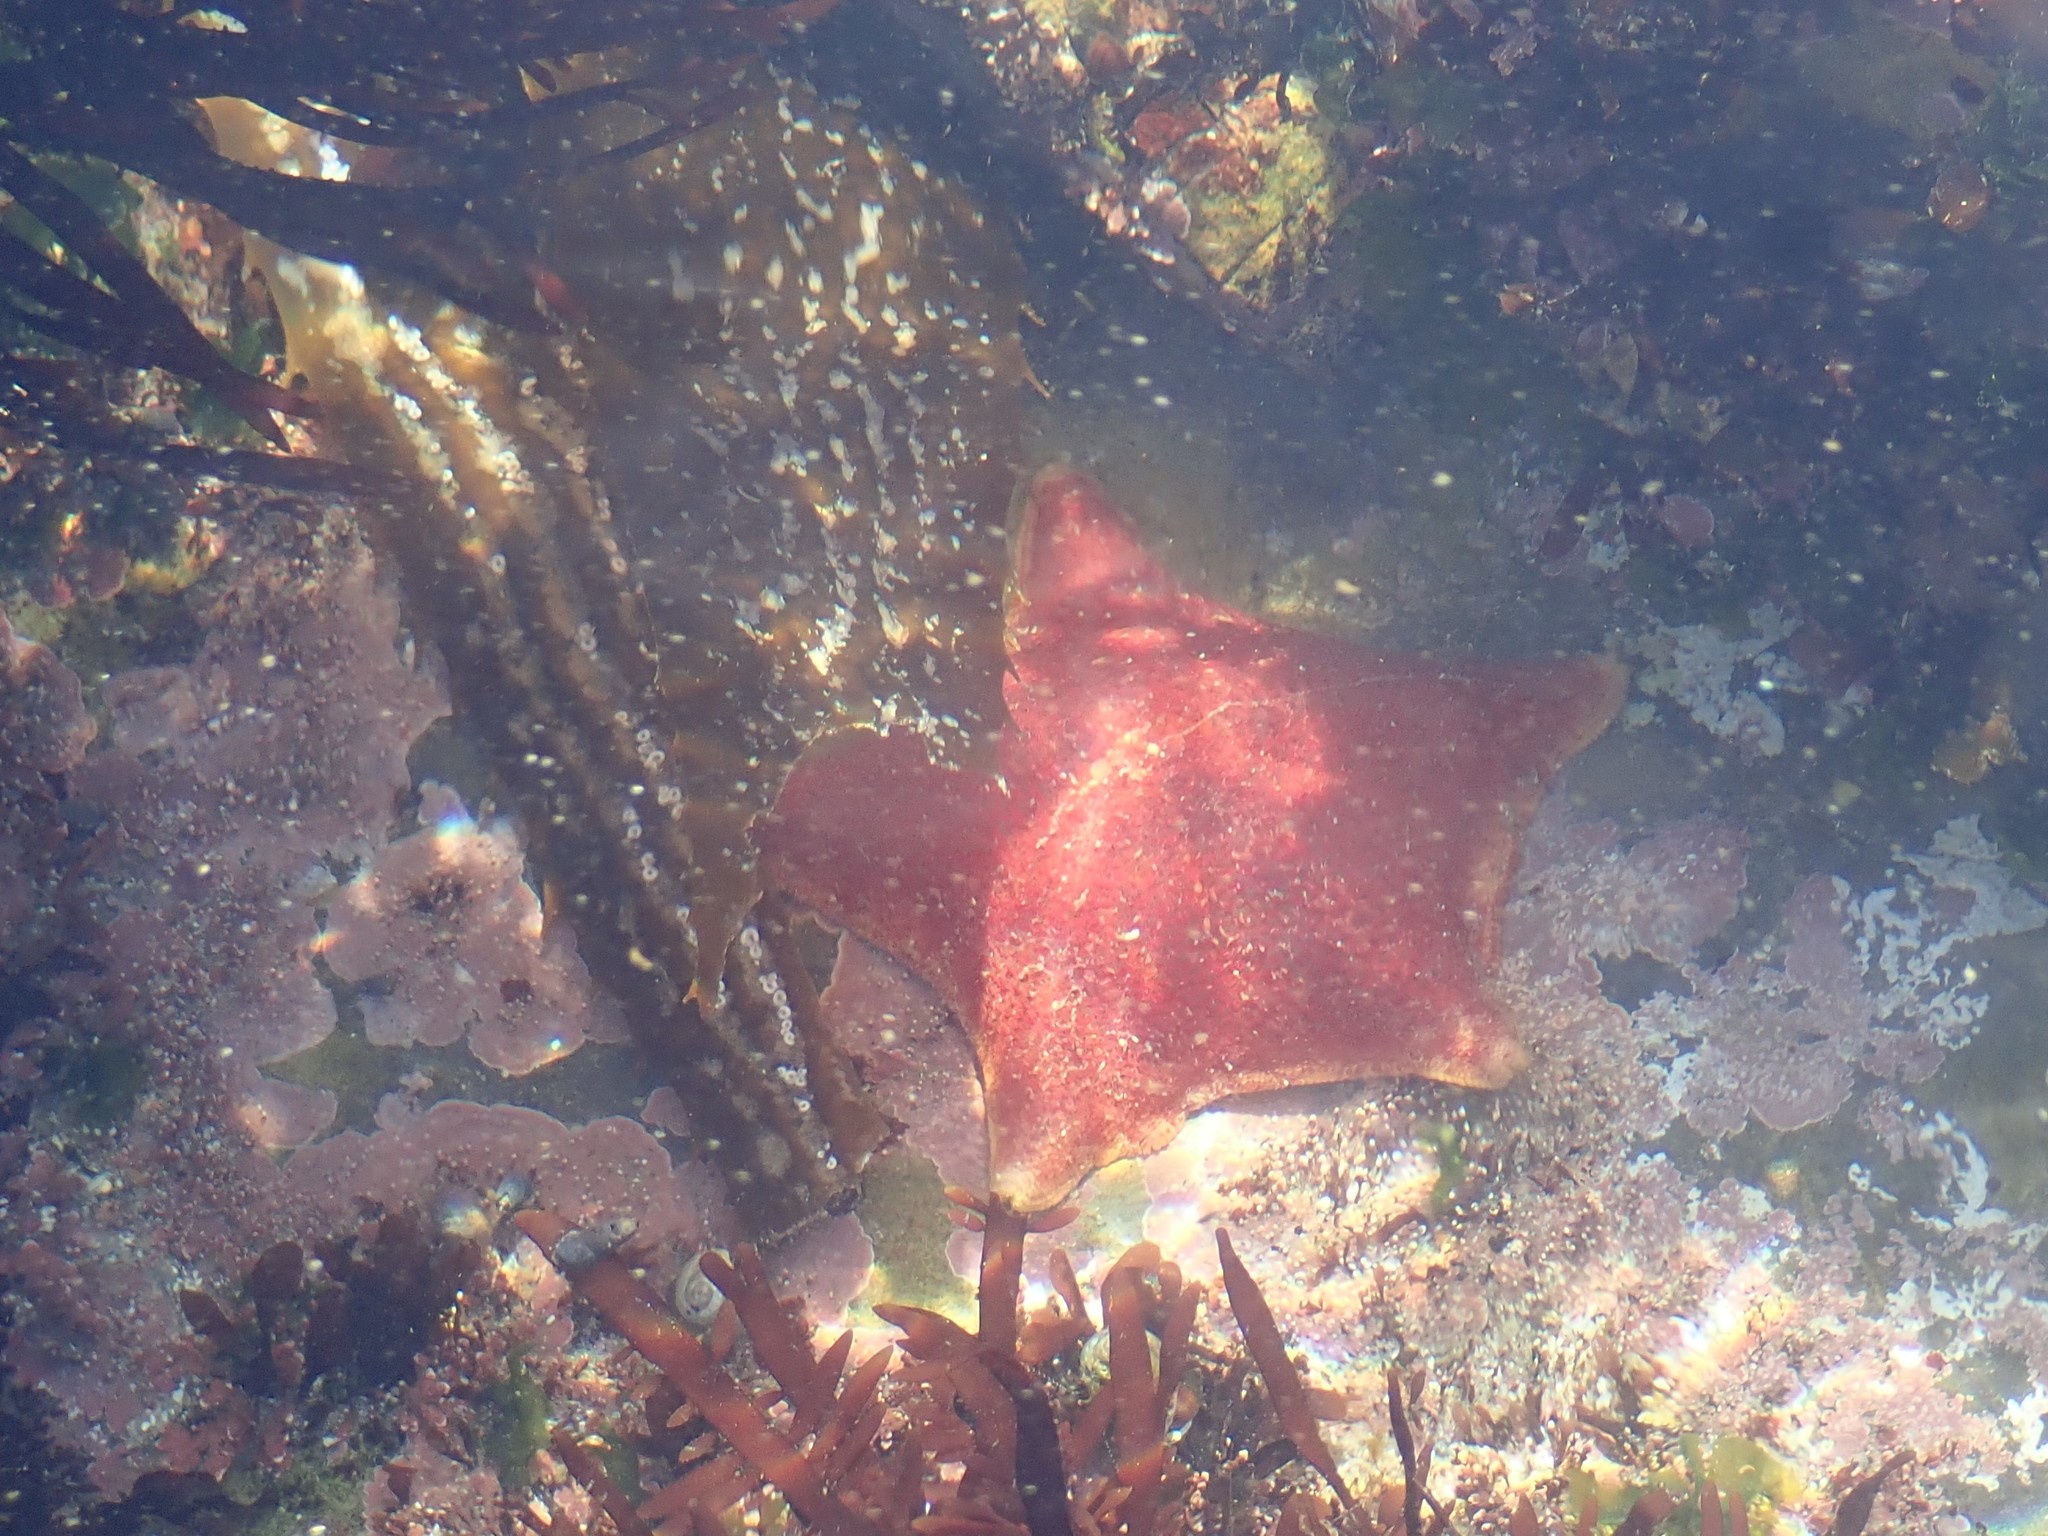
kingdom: Animalia
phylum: Echinodermata
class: Asteroidea
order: Valvatida
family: Asterinidae
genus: Patiria
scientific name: Patiria miniata
